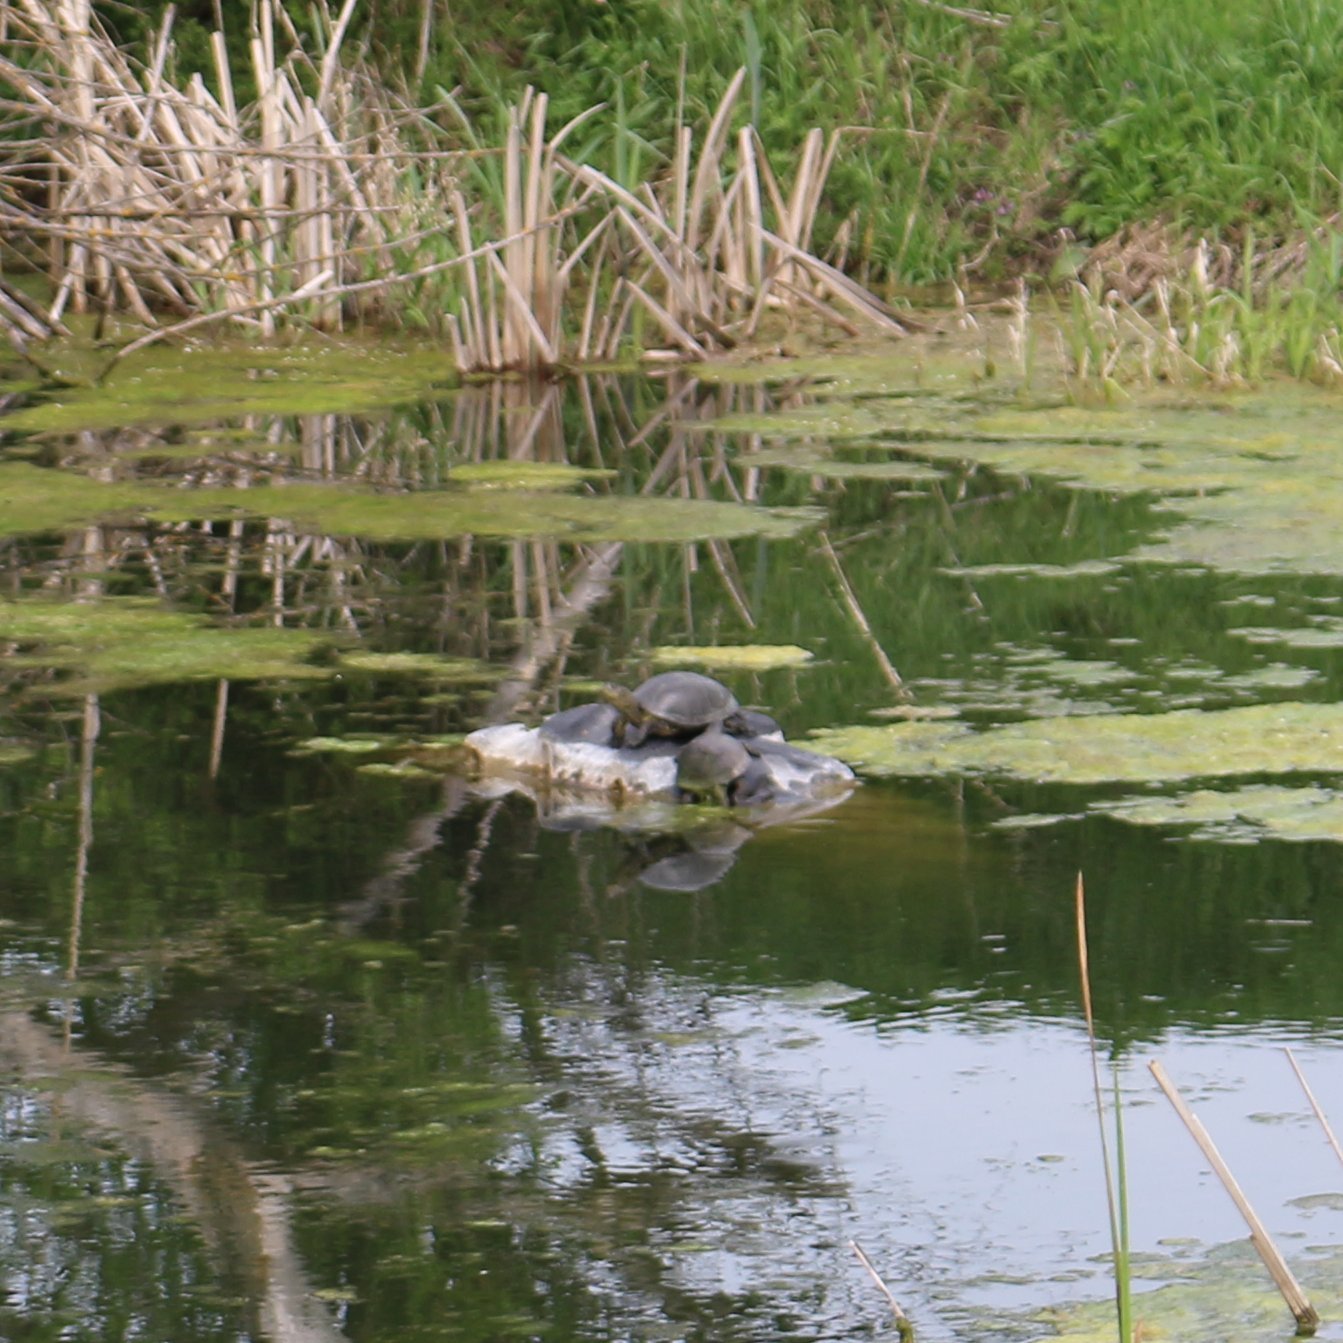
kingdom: Animalia
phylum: Chordata
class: Testudines
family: Emydidae
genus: Emys
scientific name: Emys orbicularis
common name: European pond turtle
